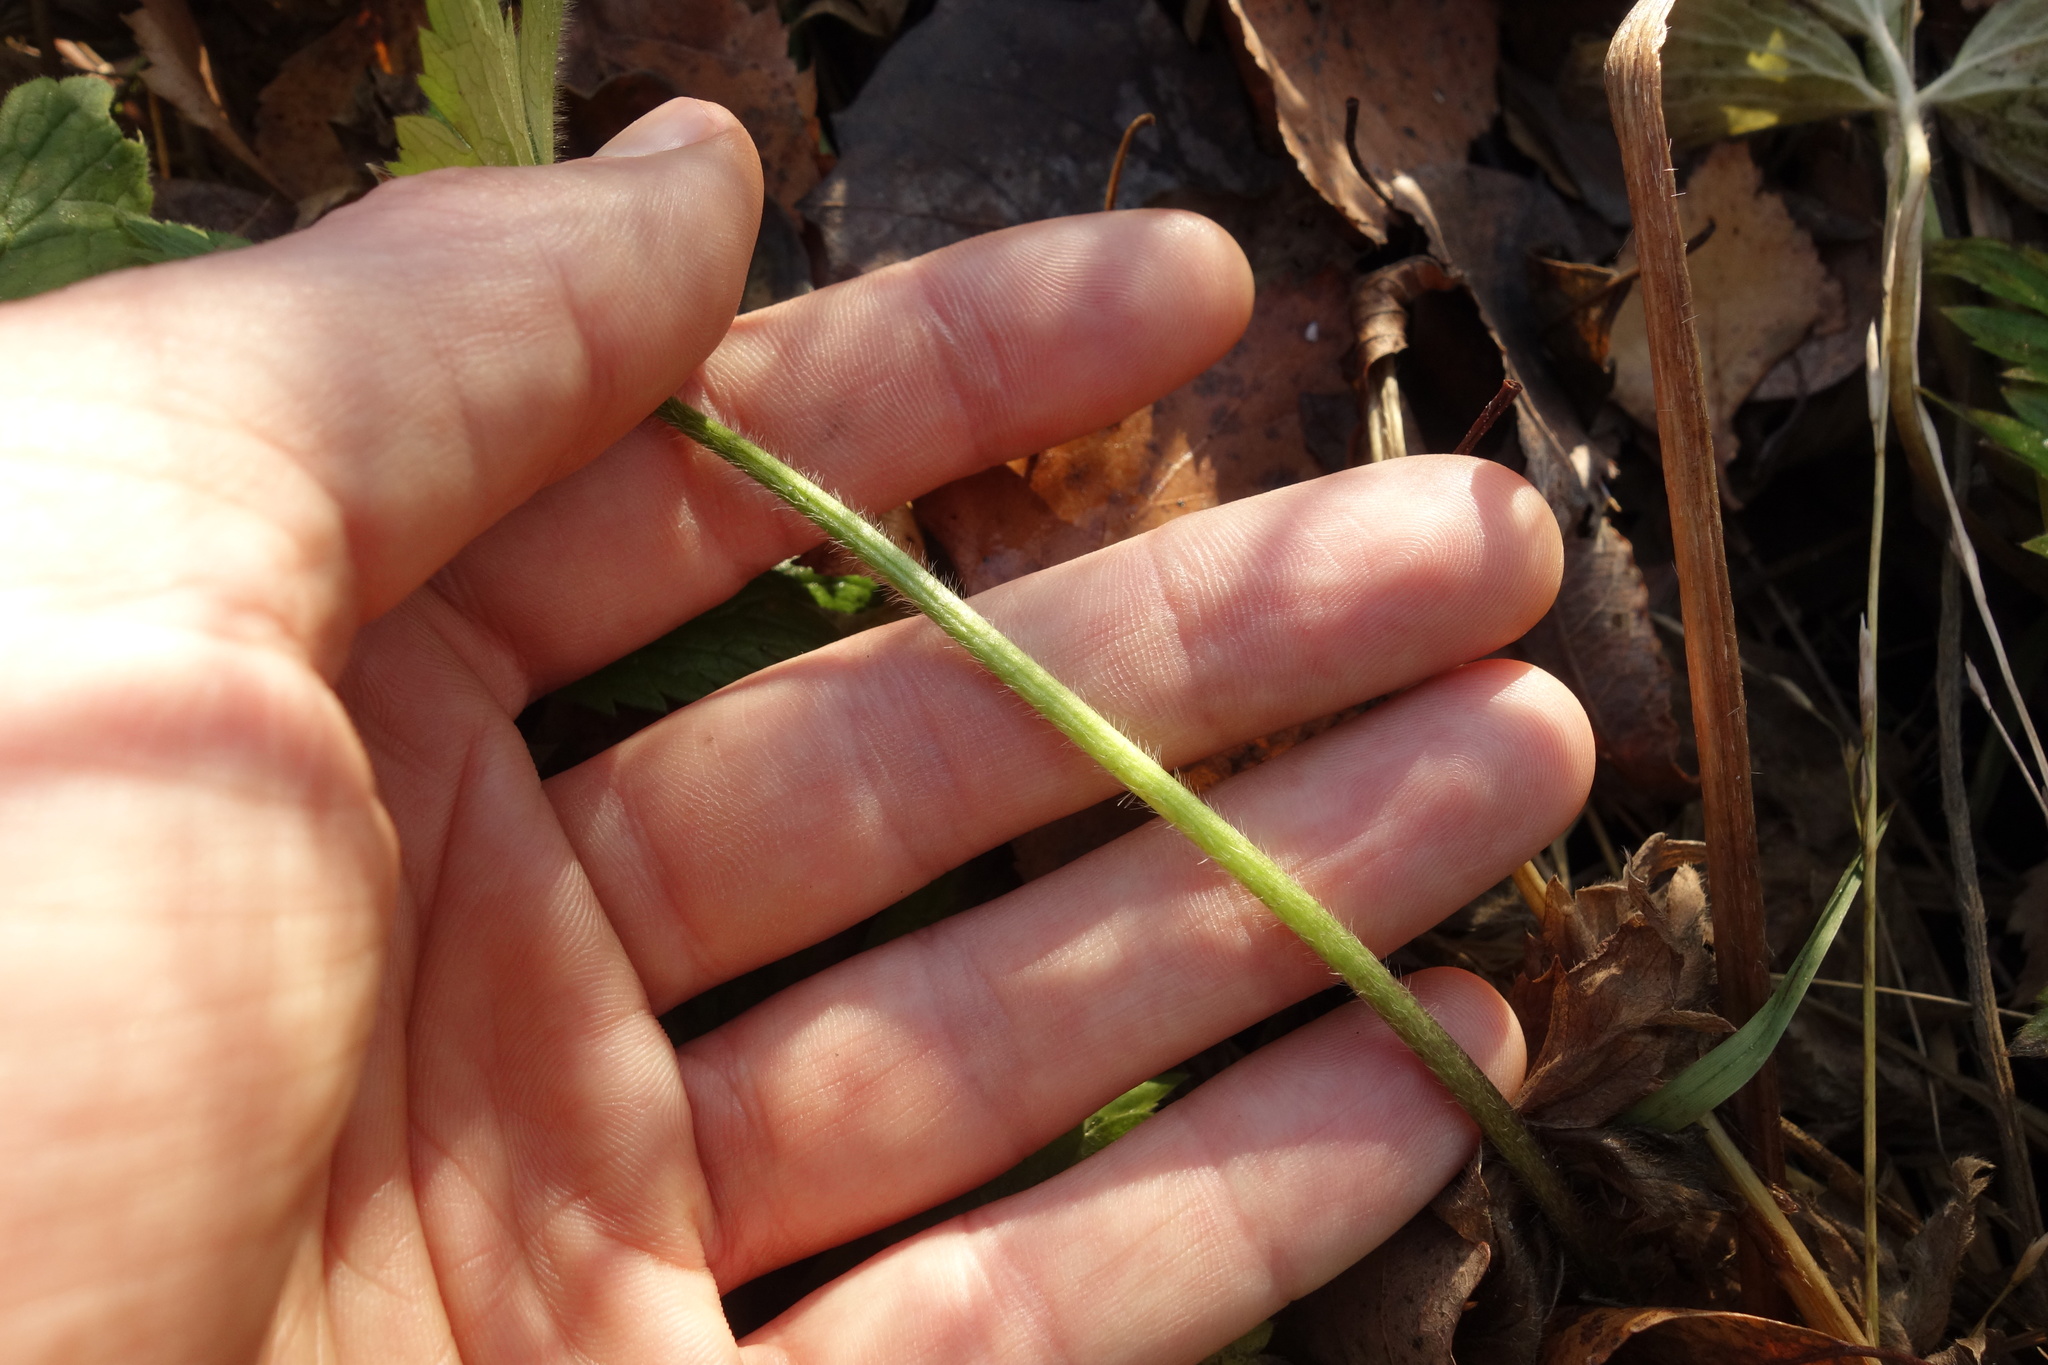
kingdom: Plantae
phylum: Tracheophyta
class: Magnoliopsida
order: Ranunculales
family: Ranunculaceae
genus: Ranunculus
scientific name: Ranunculus repens
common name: Creeping buttercup
